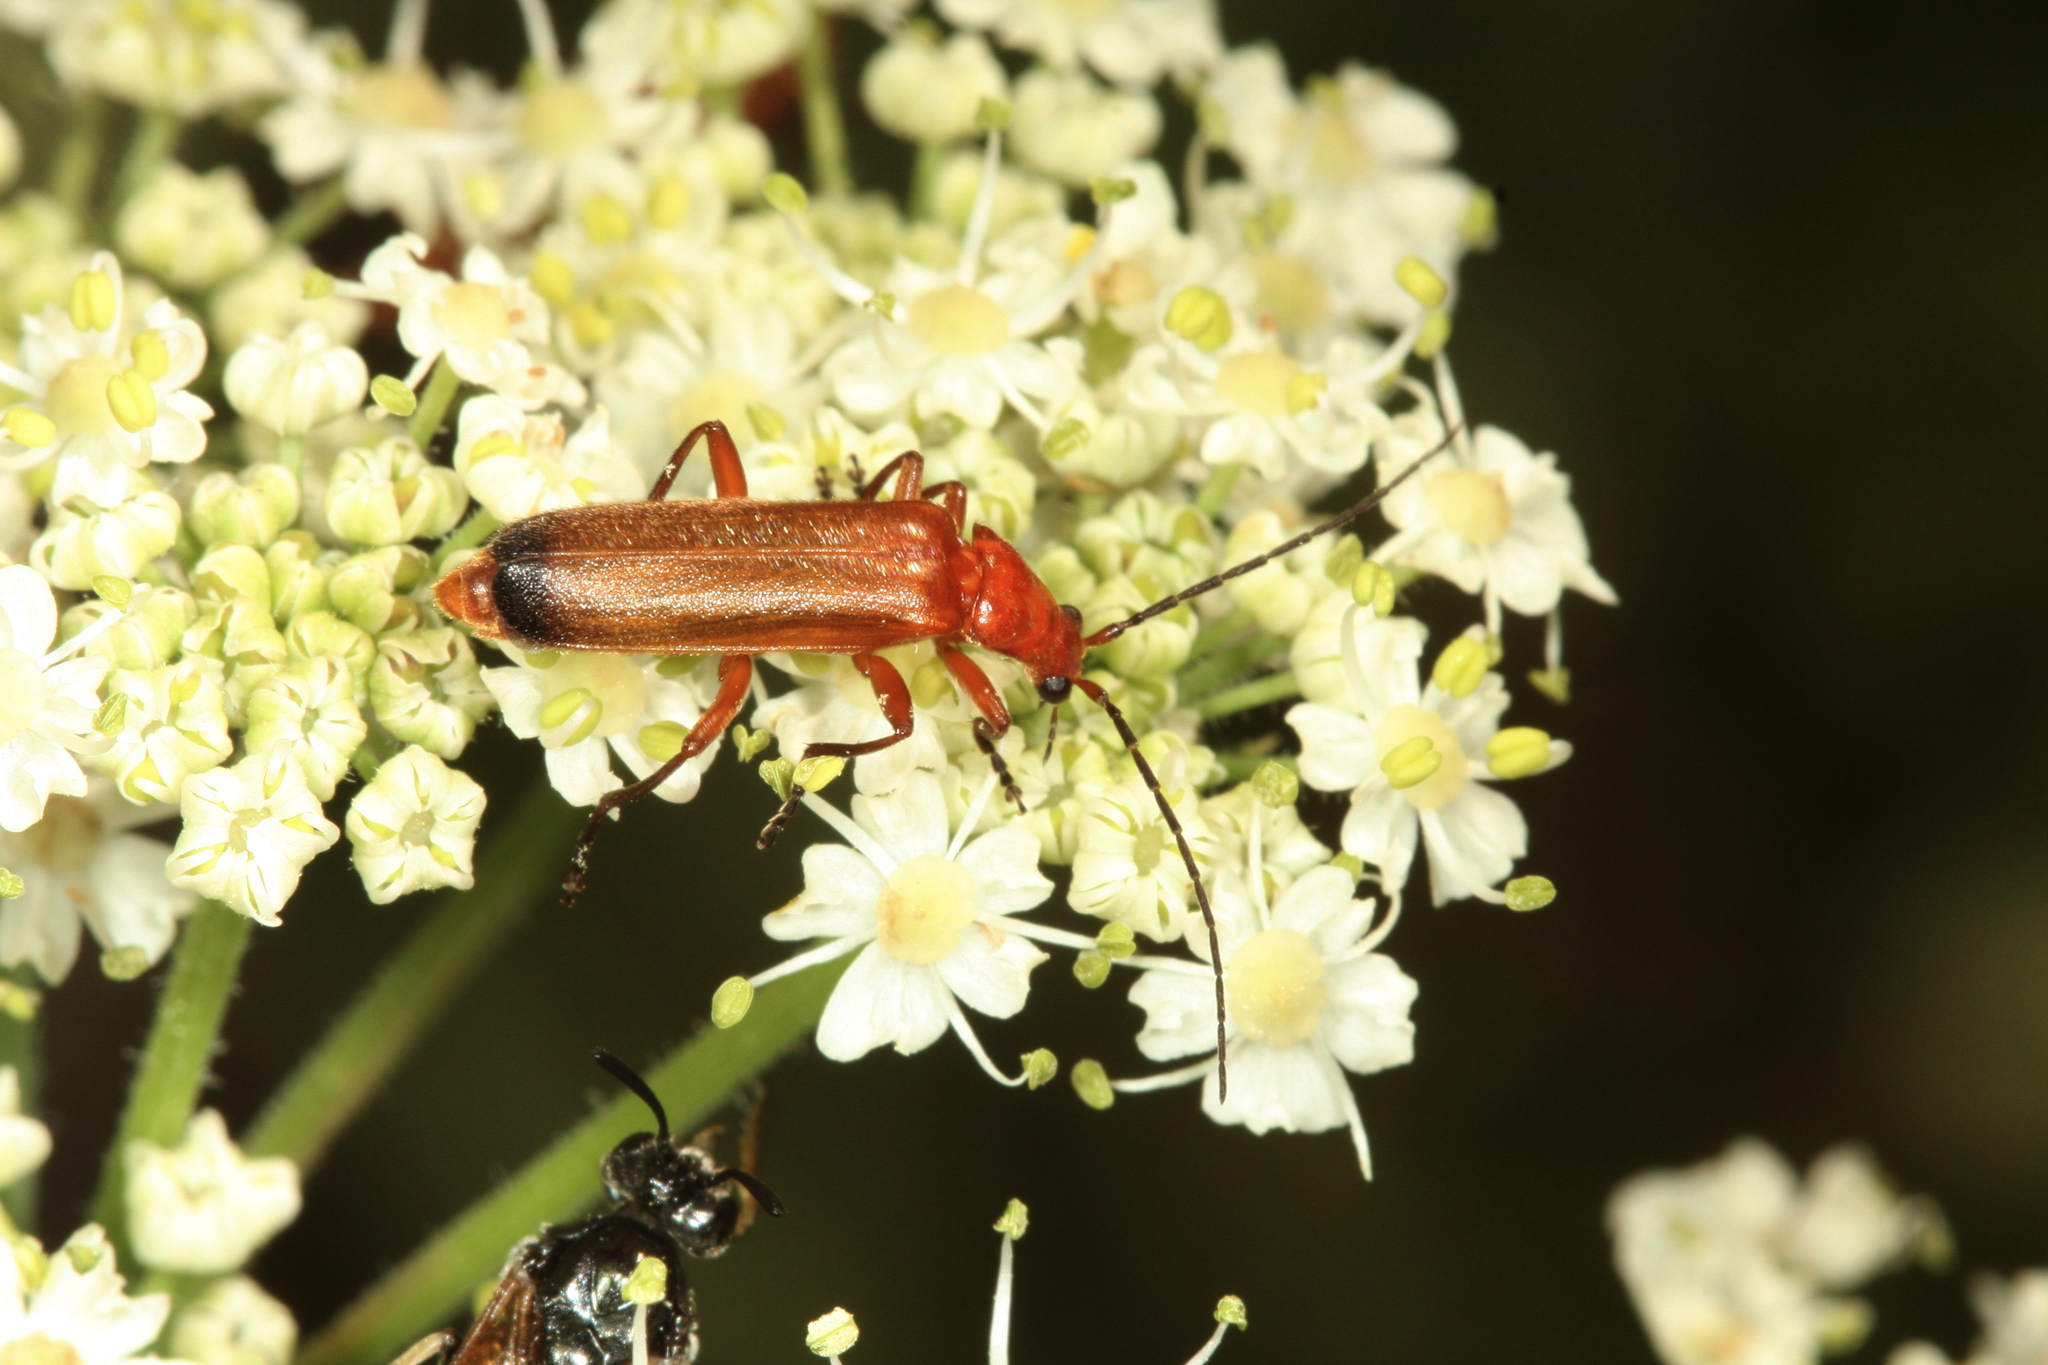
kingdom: Animalia
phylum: Arthropoda
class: Insecta
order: Coleoptera
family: Cantharidae
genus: Rhagonycha
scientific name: Rhagonycha fulva
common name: Common red soldier beetle
